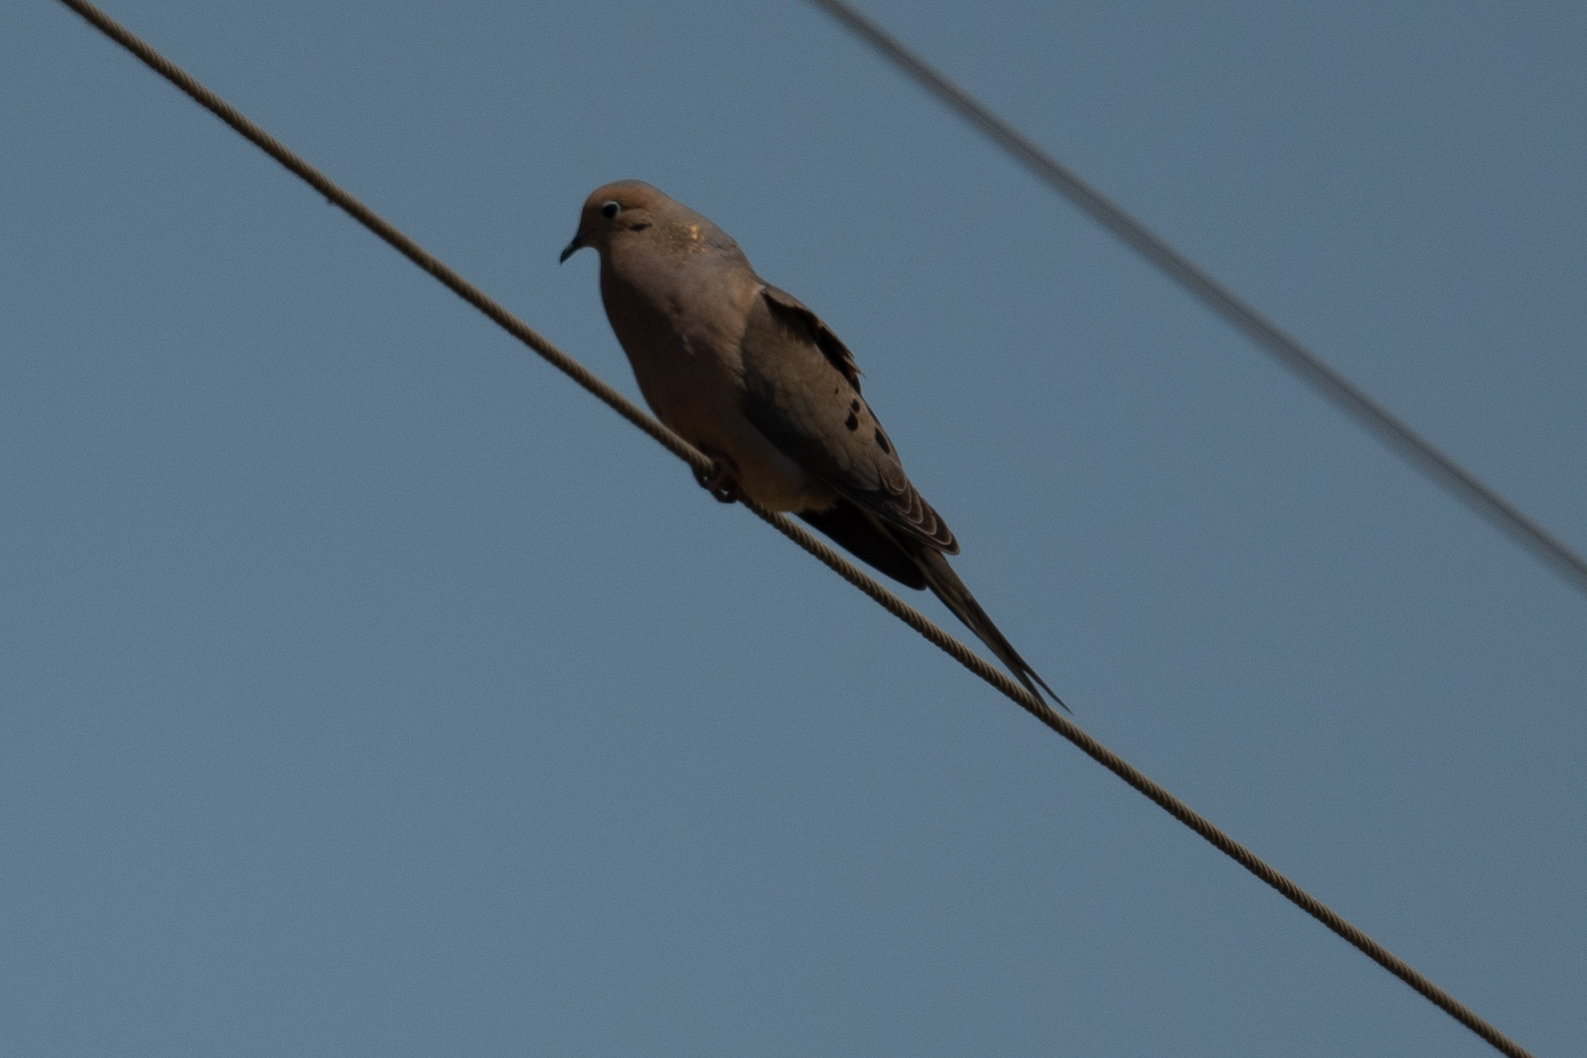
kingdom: Animalia
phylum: Chordata
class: Aves
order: Columbiformes
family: Columbidae
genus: Zenaida
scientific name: Zenaida macroura
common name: Mourning dove
